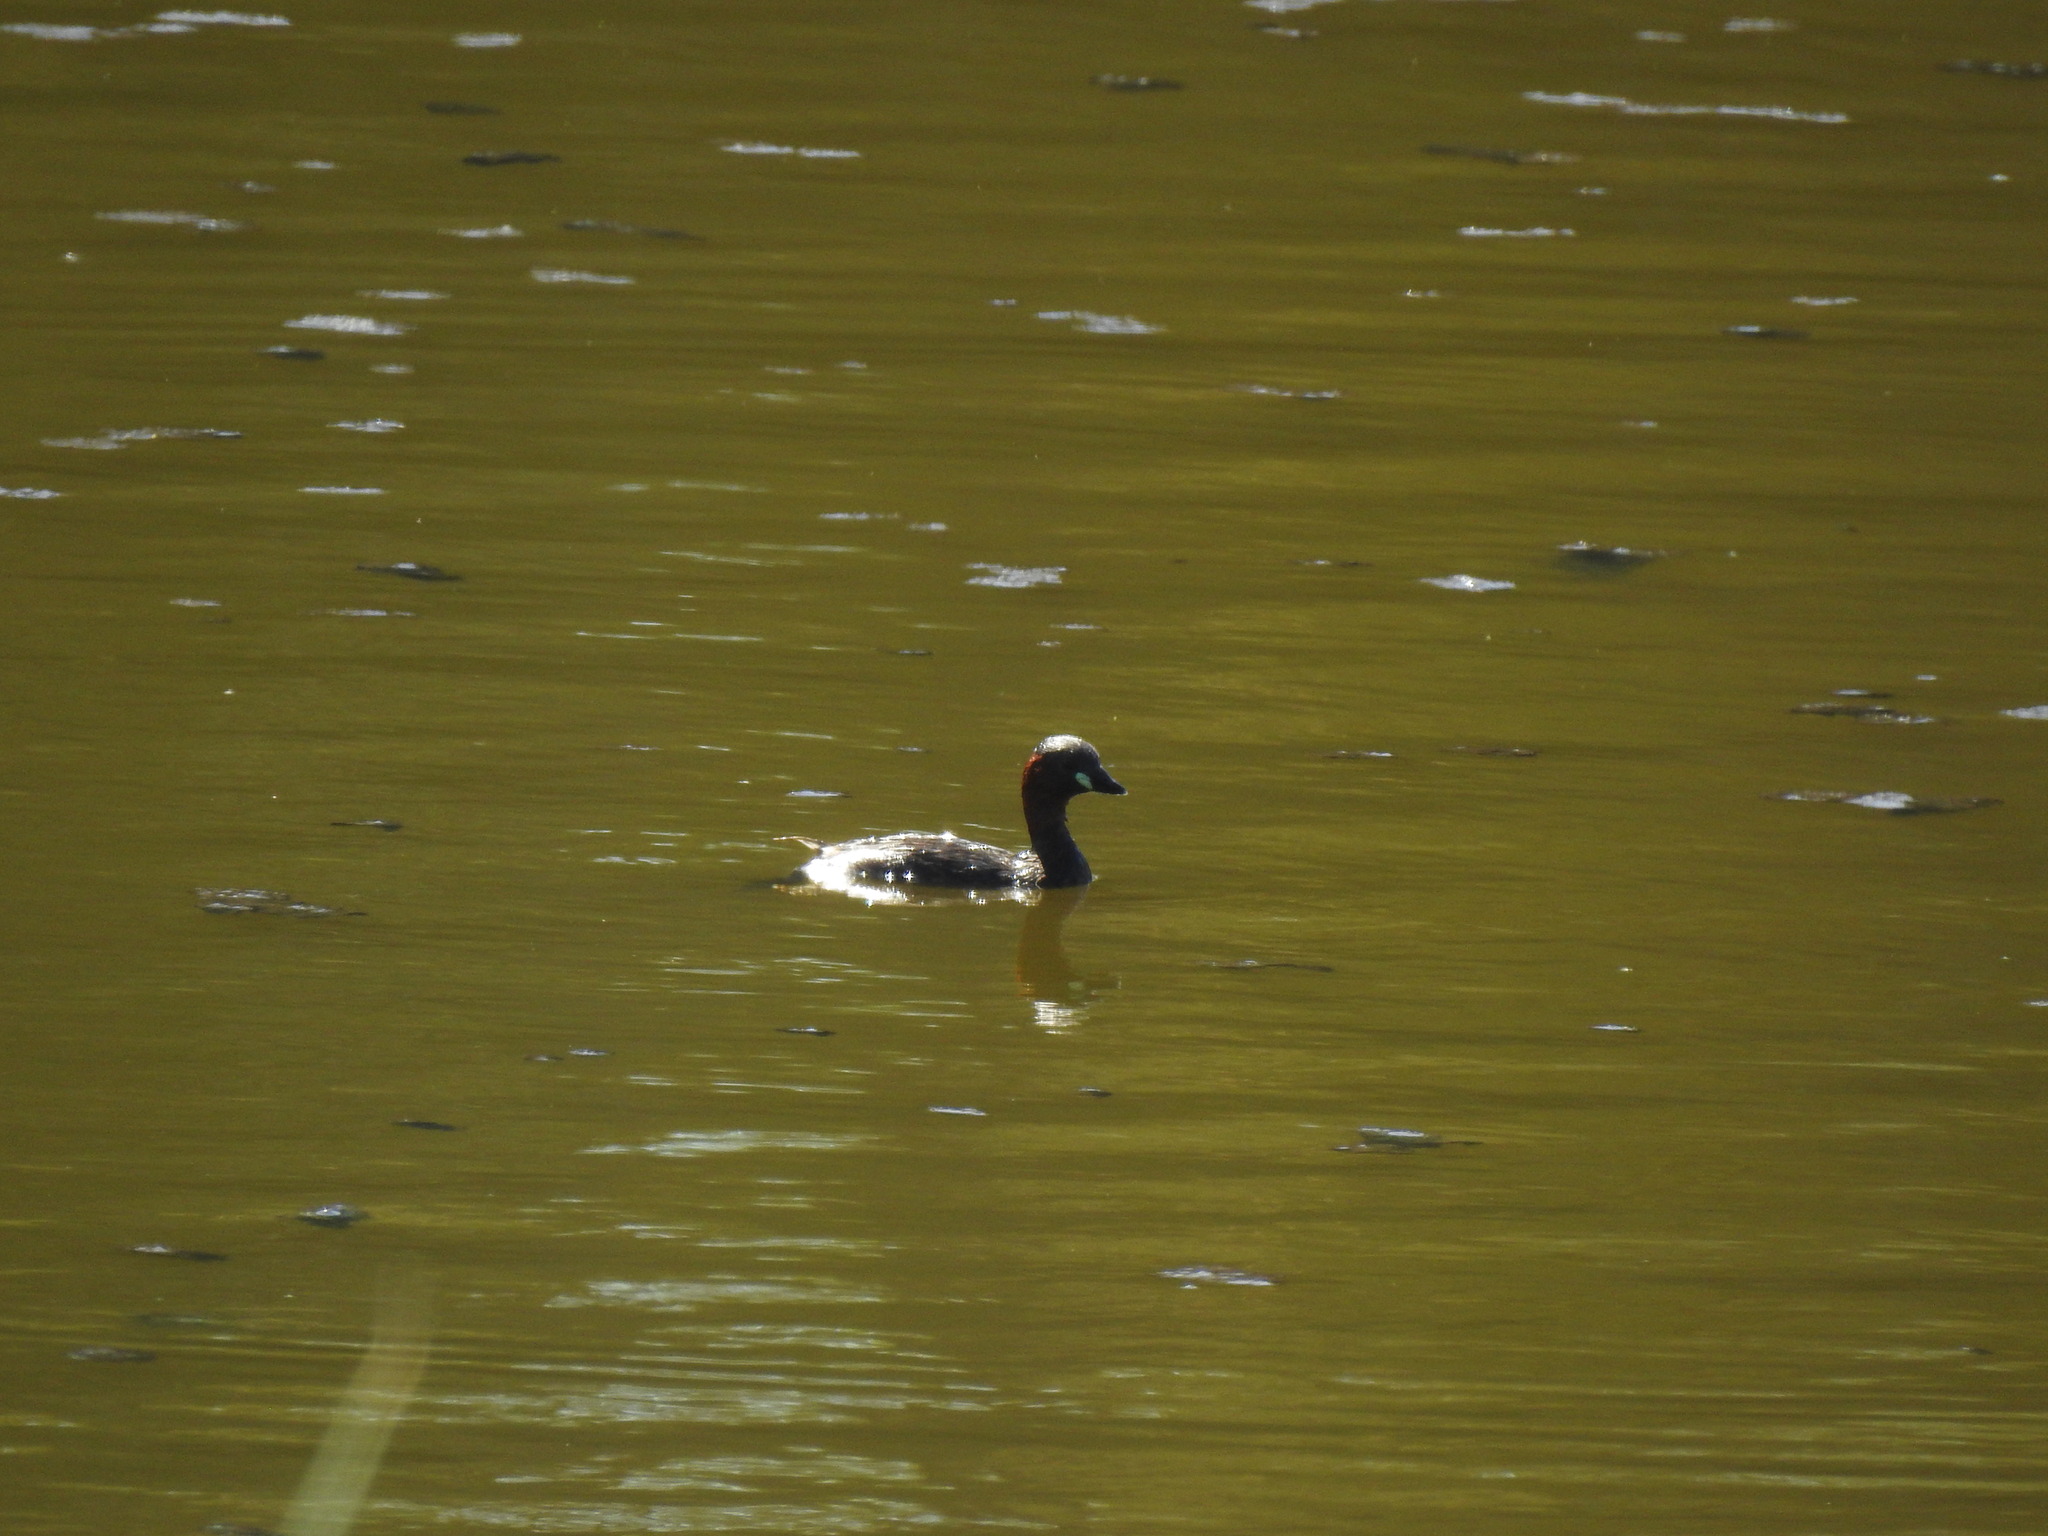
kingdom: Animalia
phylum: Chordata
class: Aves
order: Podicipediformes
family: Podicipedidae
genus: Tachybaptus
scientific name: Tachybaptus ruficollis
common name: Little grebe
